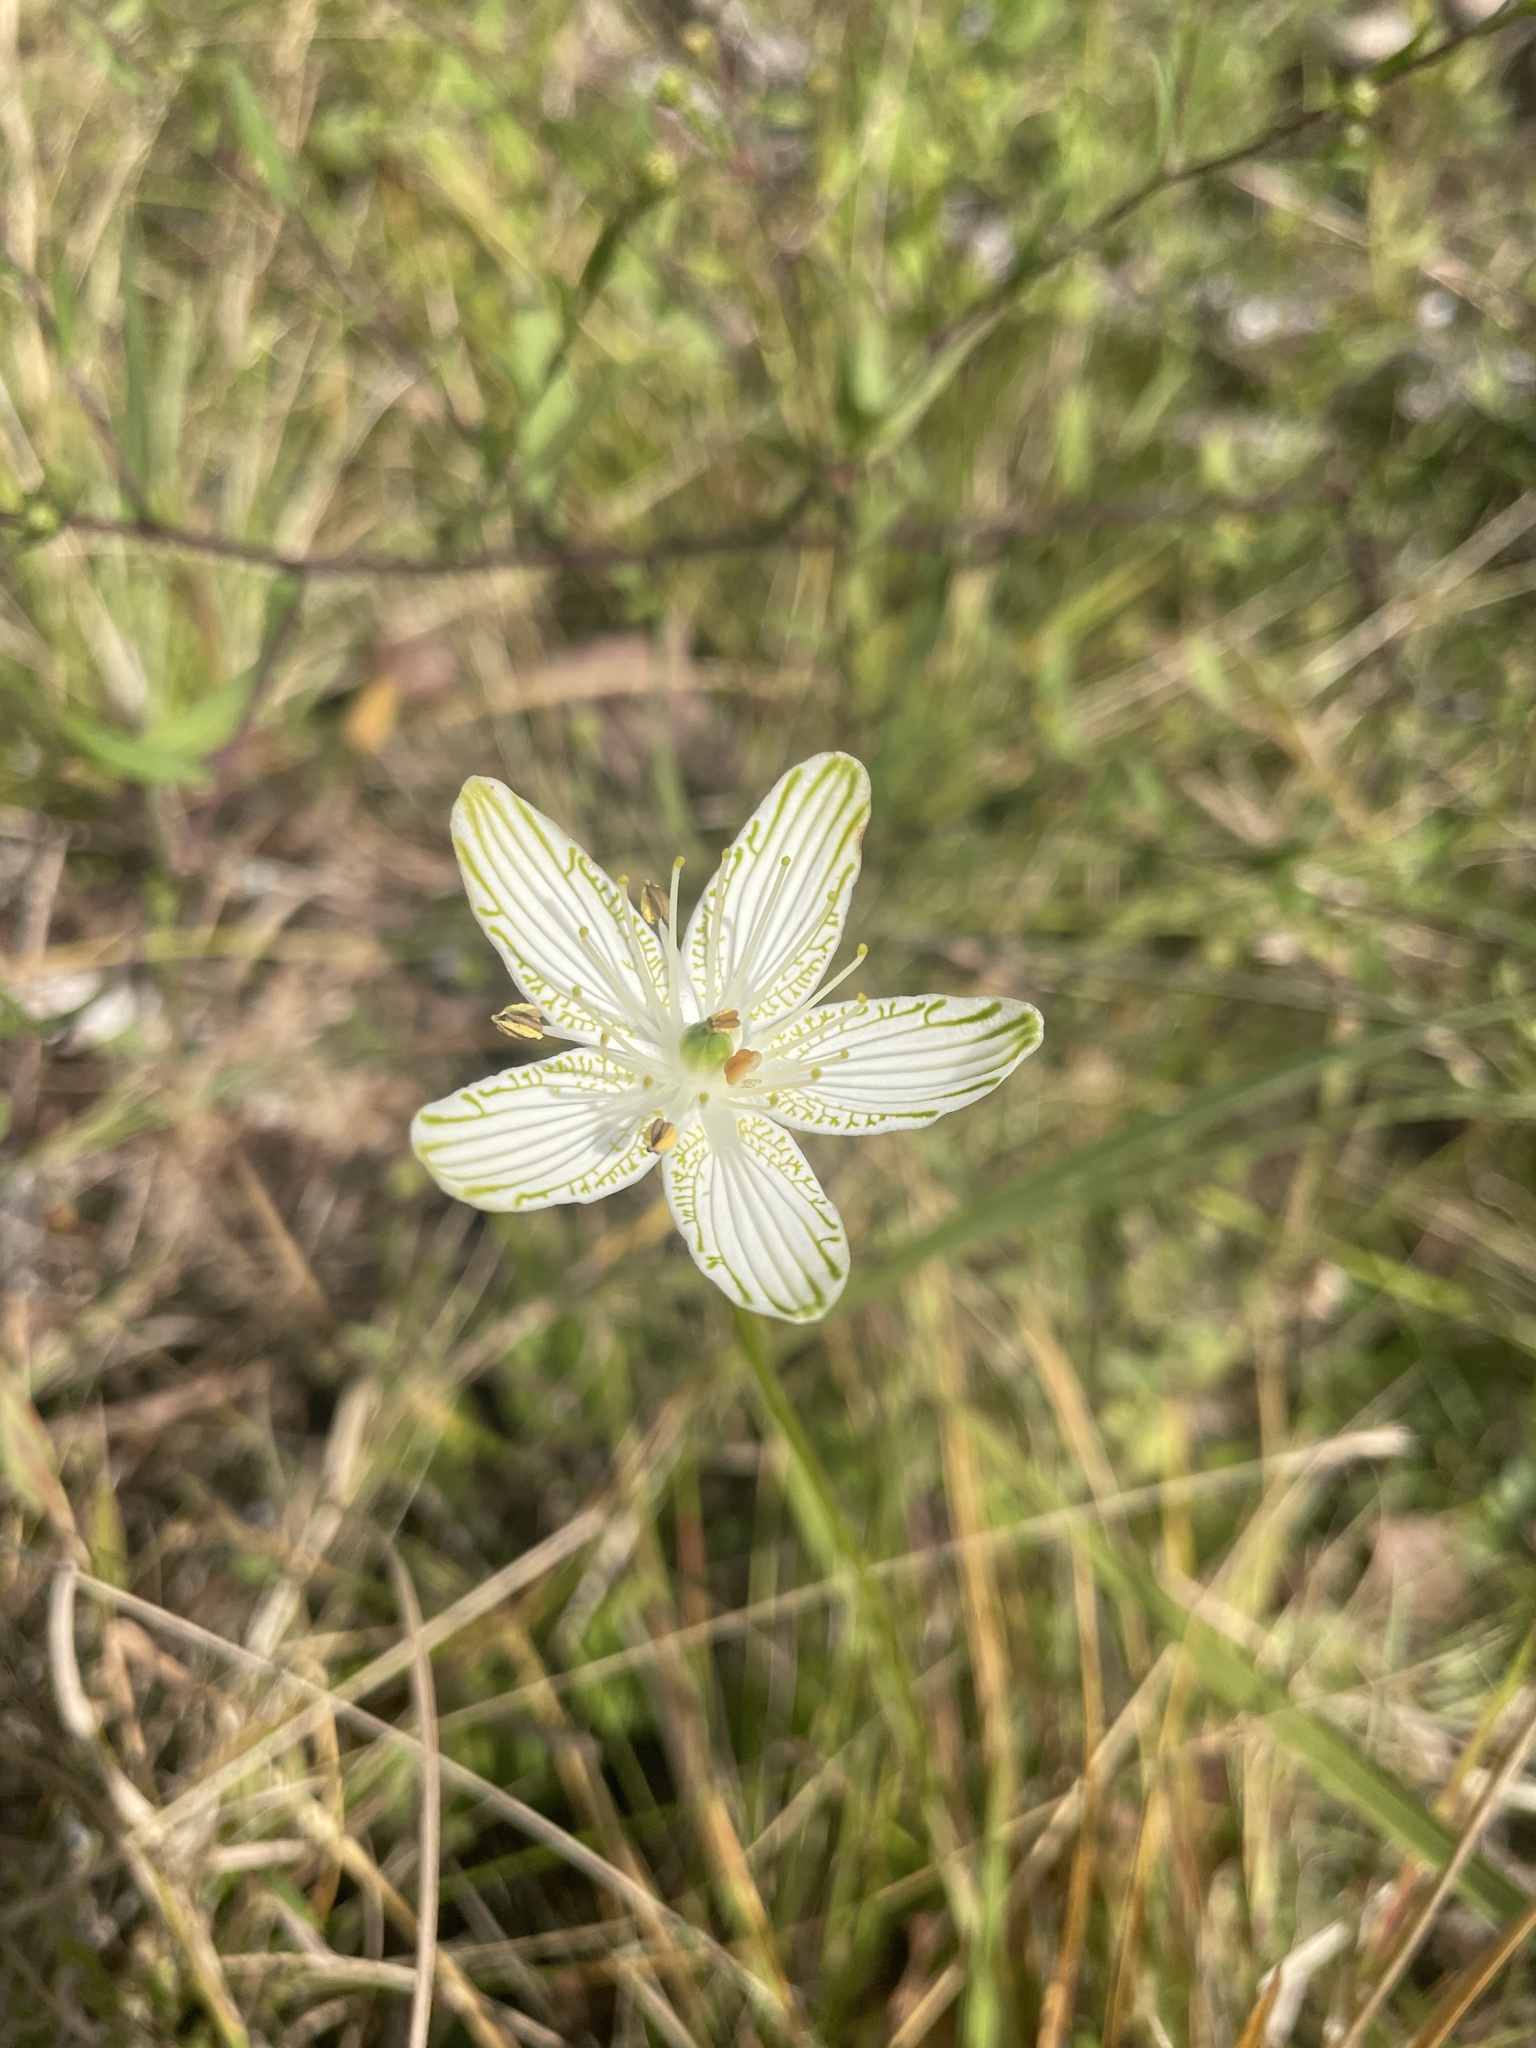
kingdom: Plantae
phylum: Tracheophyta
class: Magnoliopsida
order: Celastrales
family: Parnassiaceae
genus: Parnassia
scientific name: Parnassia grandifolia
